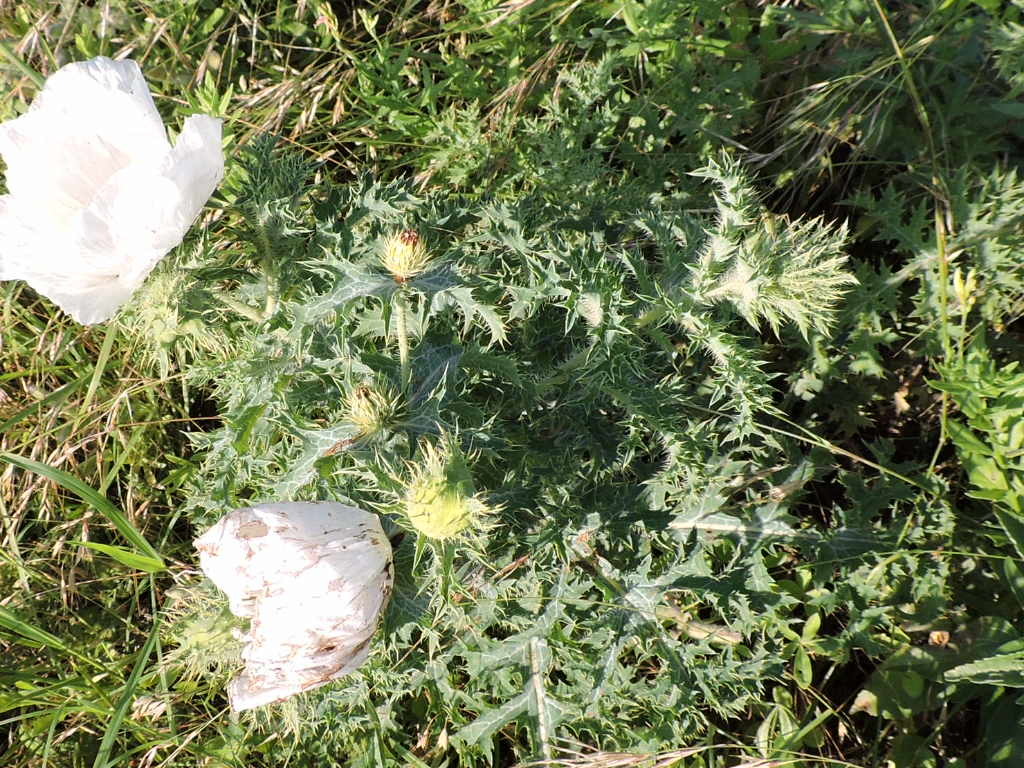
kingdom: Plantae
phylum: Tracheophyta
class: Magnoliopsida
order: Ranunculales
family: Papaveraceae
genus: Argemone
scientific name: Argemone albiflora
